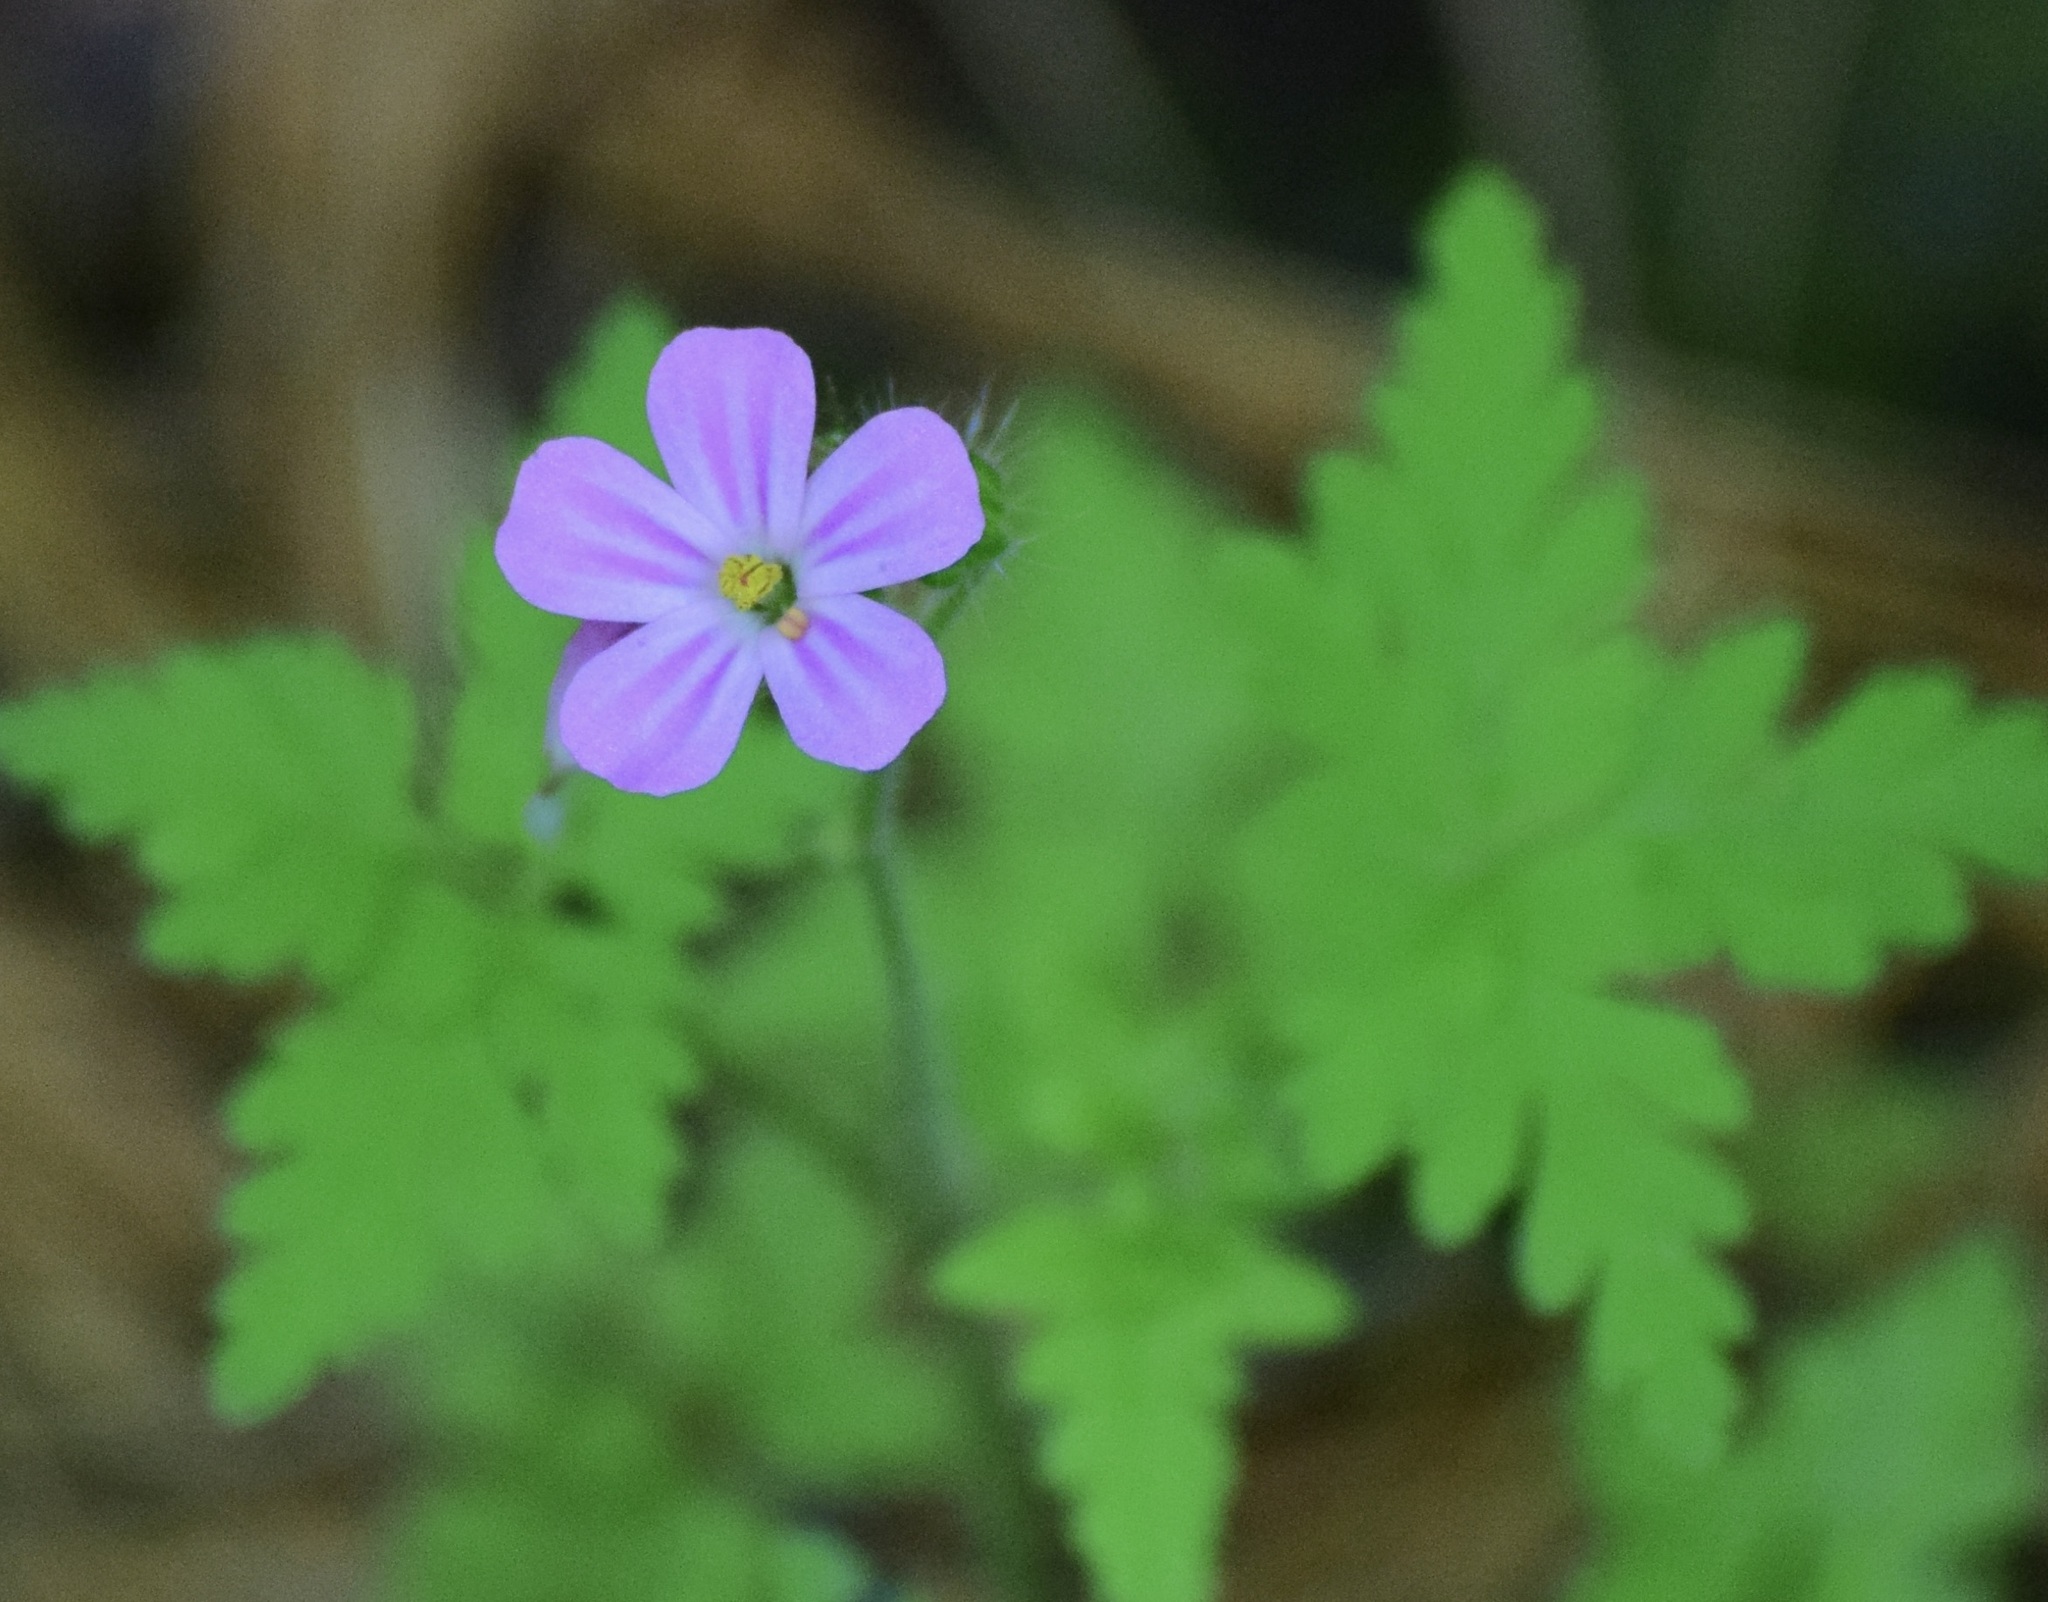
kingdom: Plantae
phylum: Tracheophyta
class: Magnoliopsida
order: Geraniales
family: Geraniaceae
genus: Geranium
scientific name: Geranium robertianum
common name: Herb-robert
